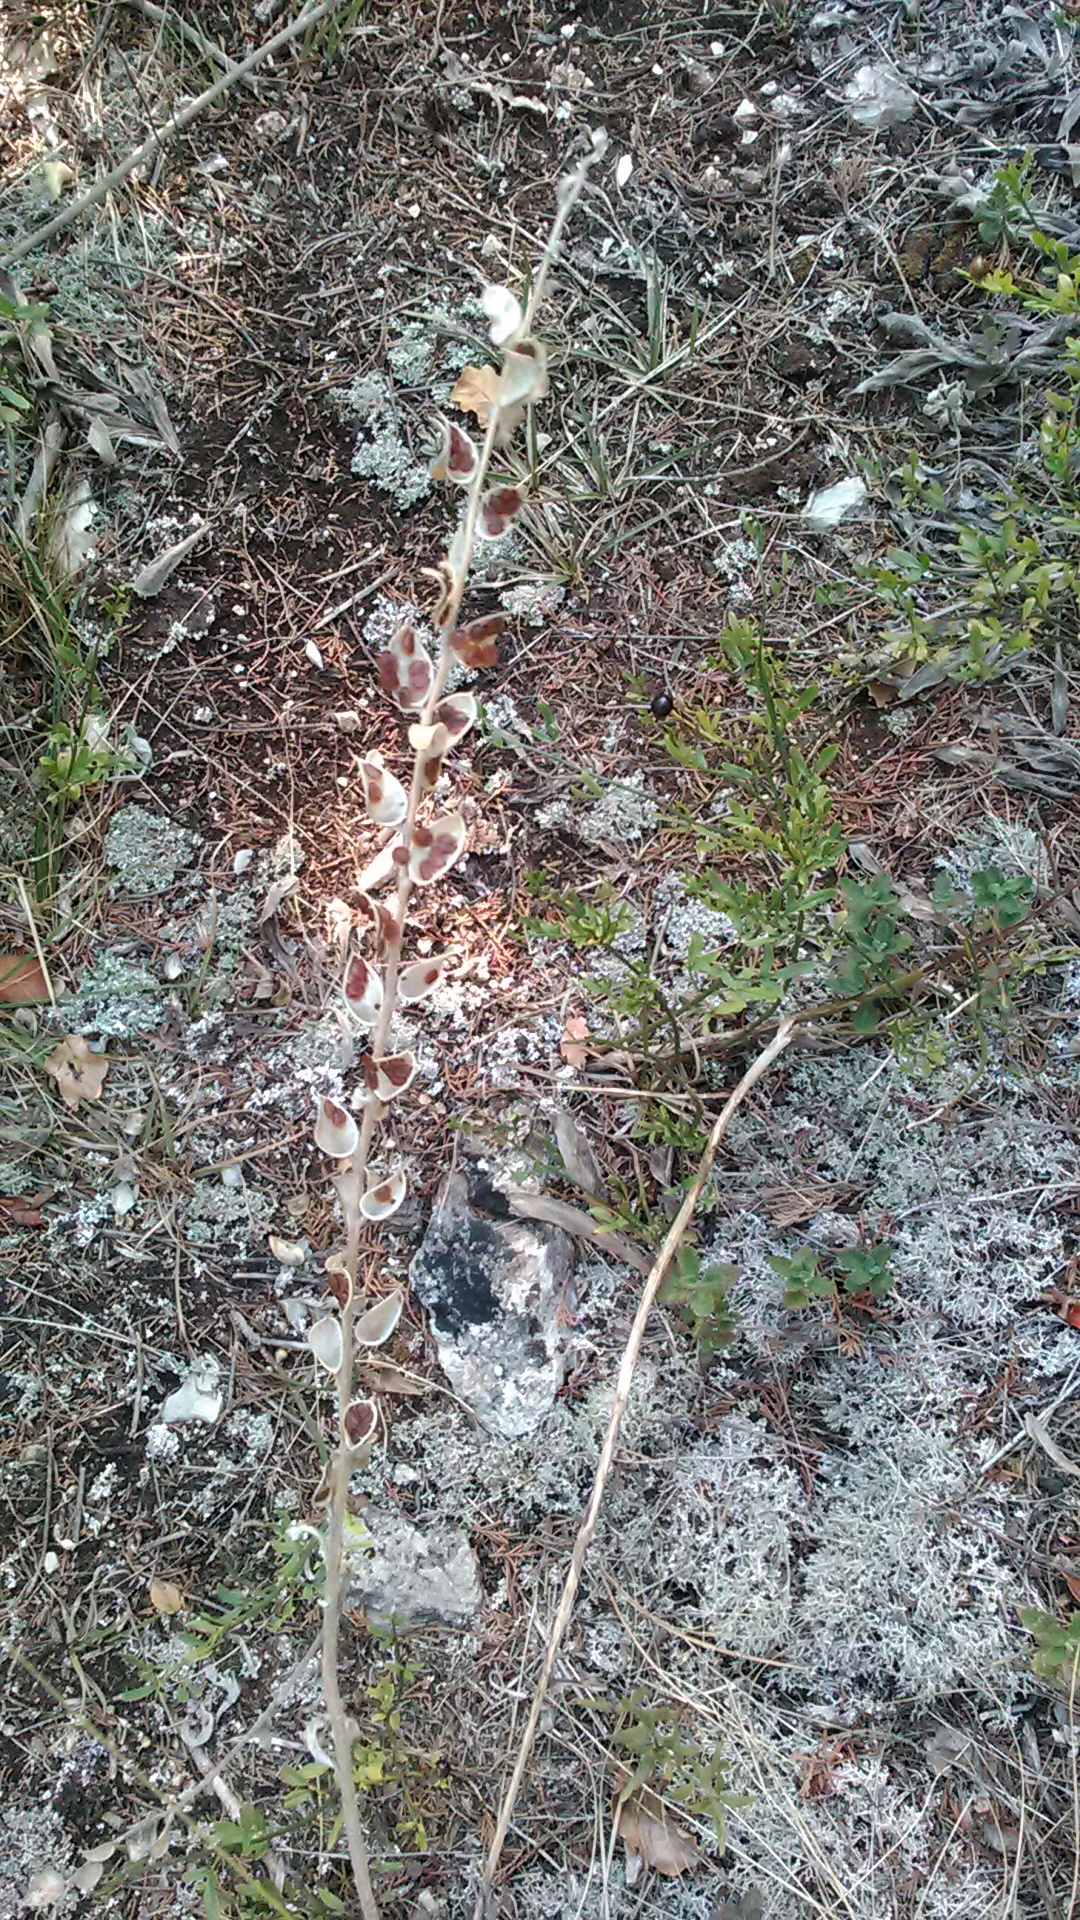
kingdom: Plantae
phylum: Tracheophyta
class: Magnoliopsida
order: Brassicales
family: Brassicaceae
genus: Fibigia
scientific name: Fibigia clypeata
